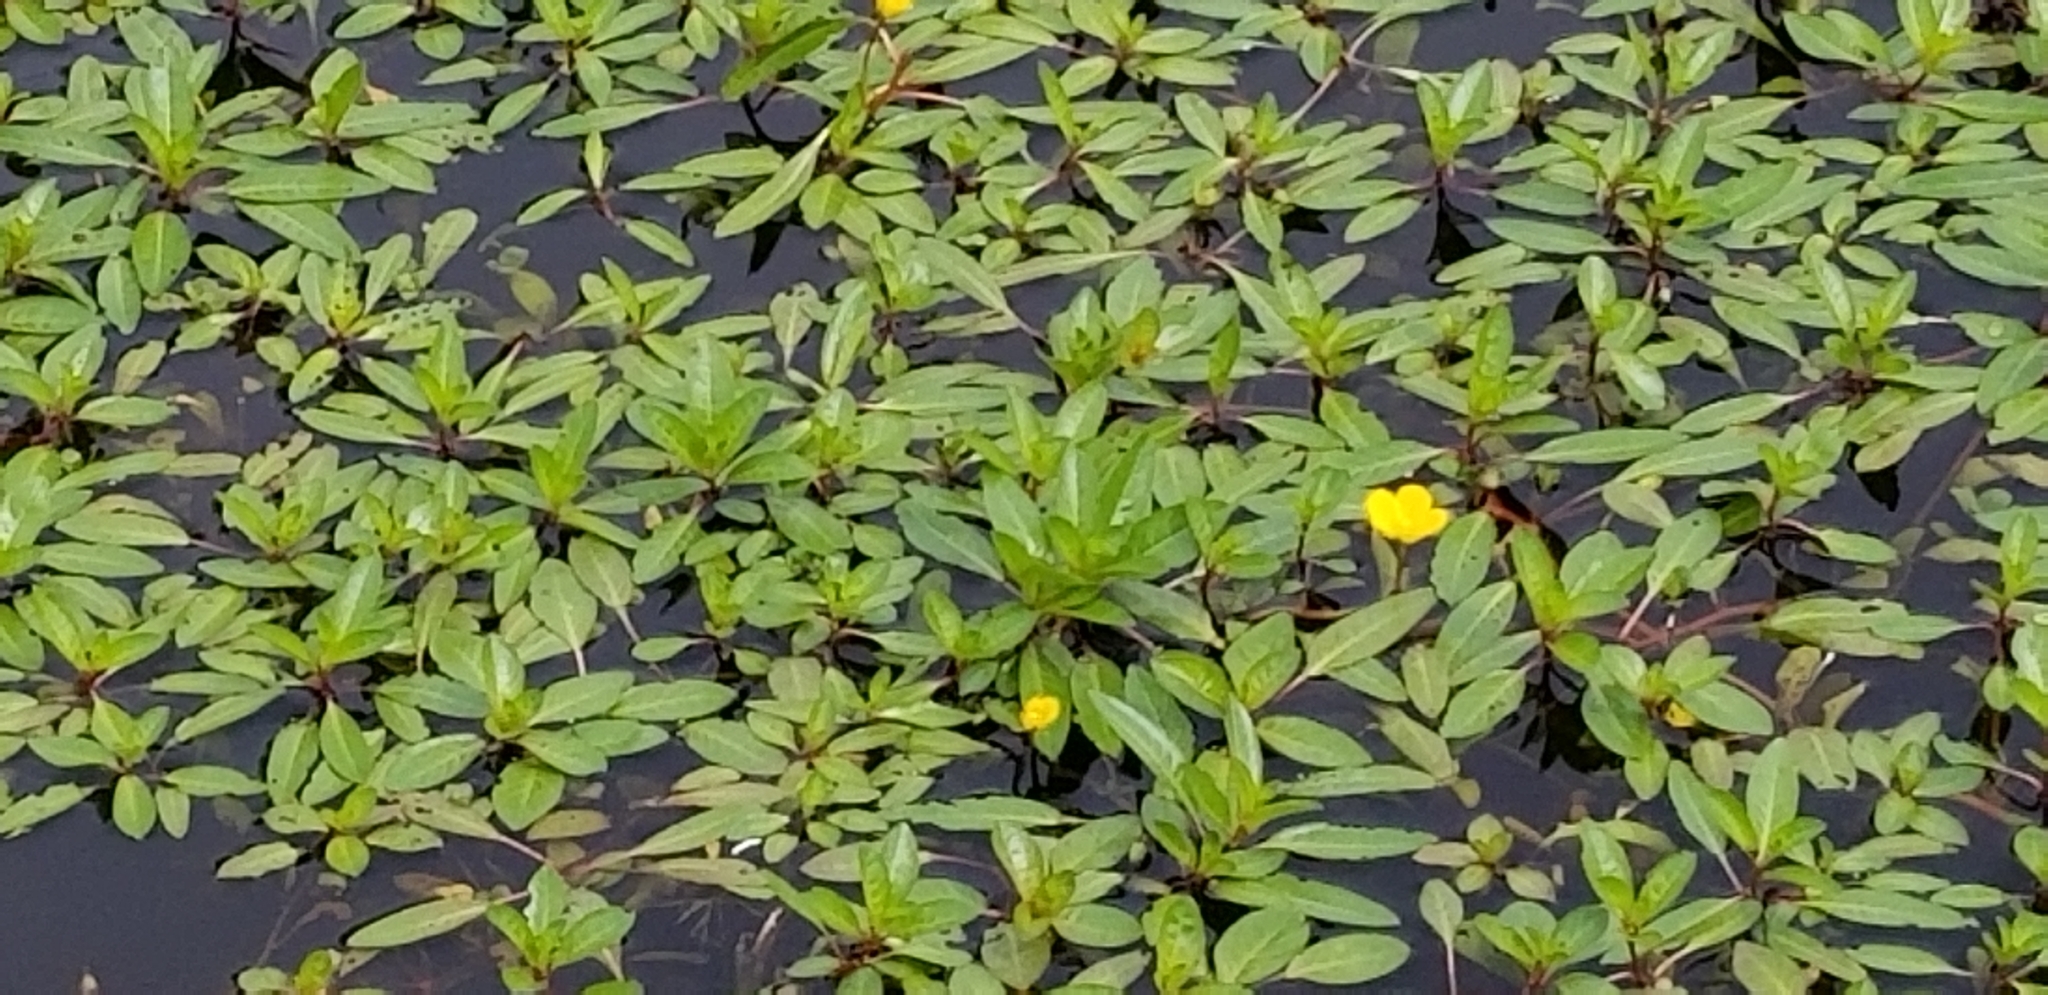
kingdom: Plantae
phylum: Tracheophyta
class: Magnoliopsida
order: Myrtales
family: Onagraceae
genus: Ludwigia
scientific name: Ludwigia peploides
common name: Floating primrose-willow
